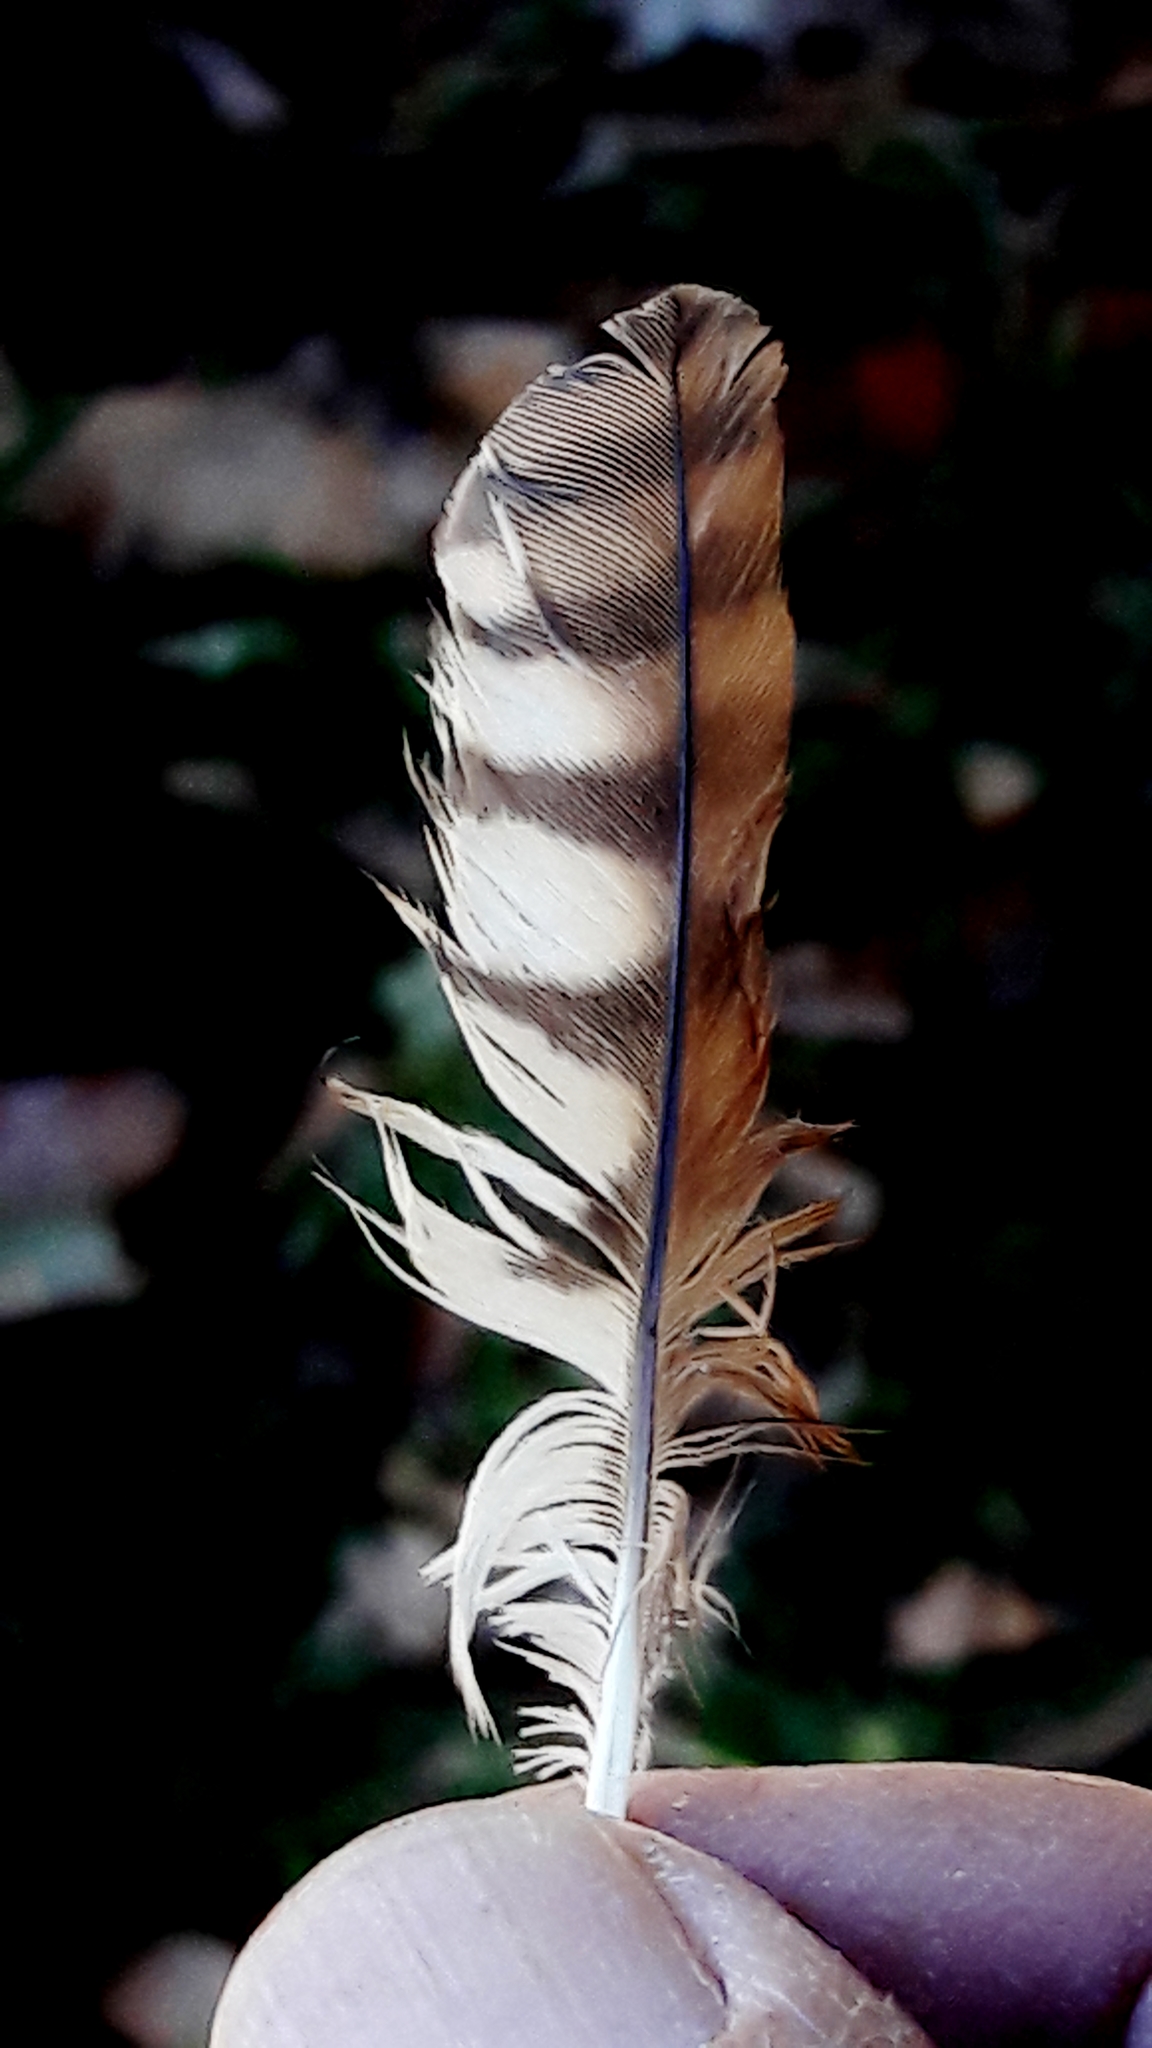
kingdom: Animalia
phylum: Chordata
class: Aves
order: Strigiformes
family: Strigidae
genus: Glaucidium
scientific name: Glaucidium brasilianum
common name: Ferruginous pygmy-owl
